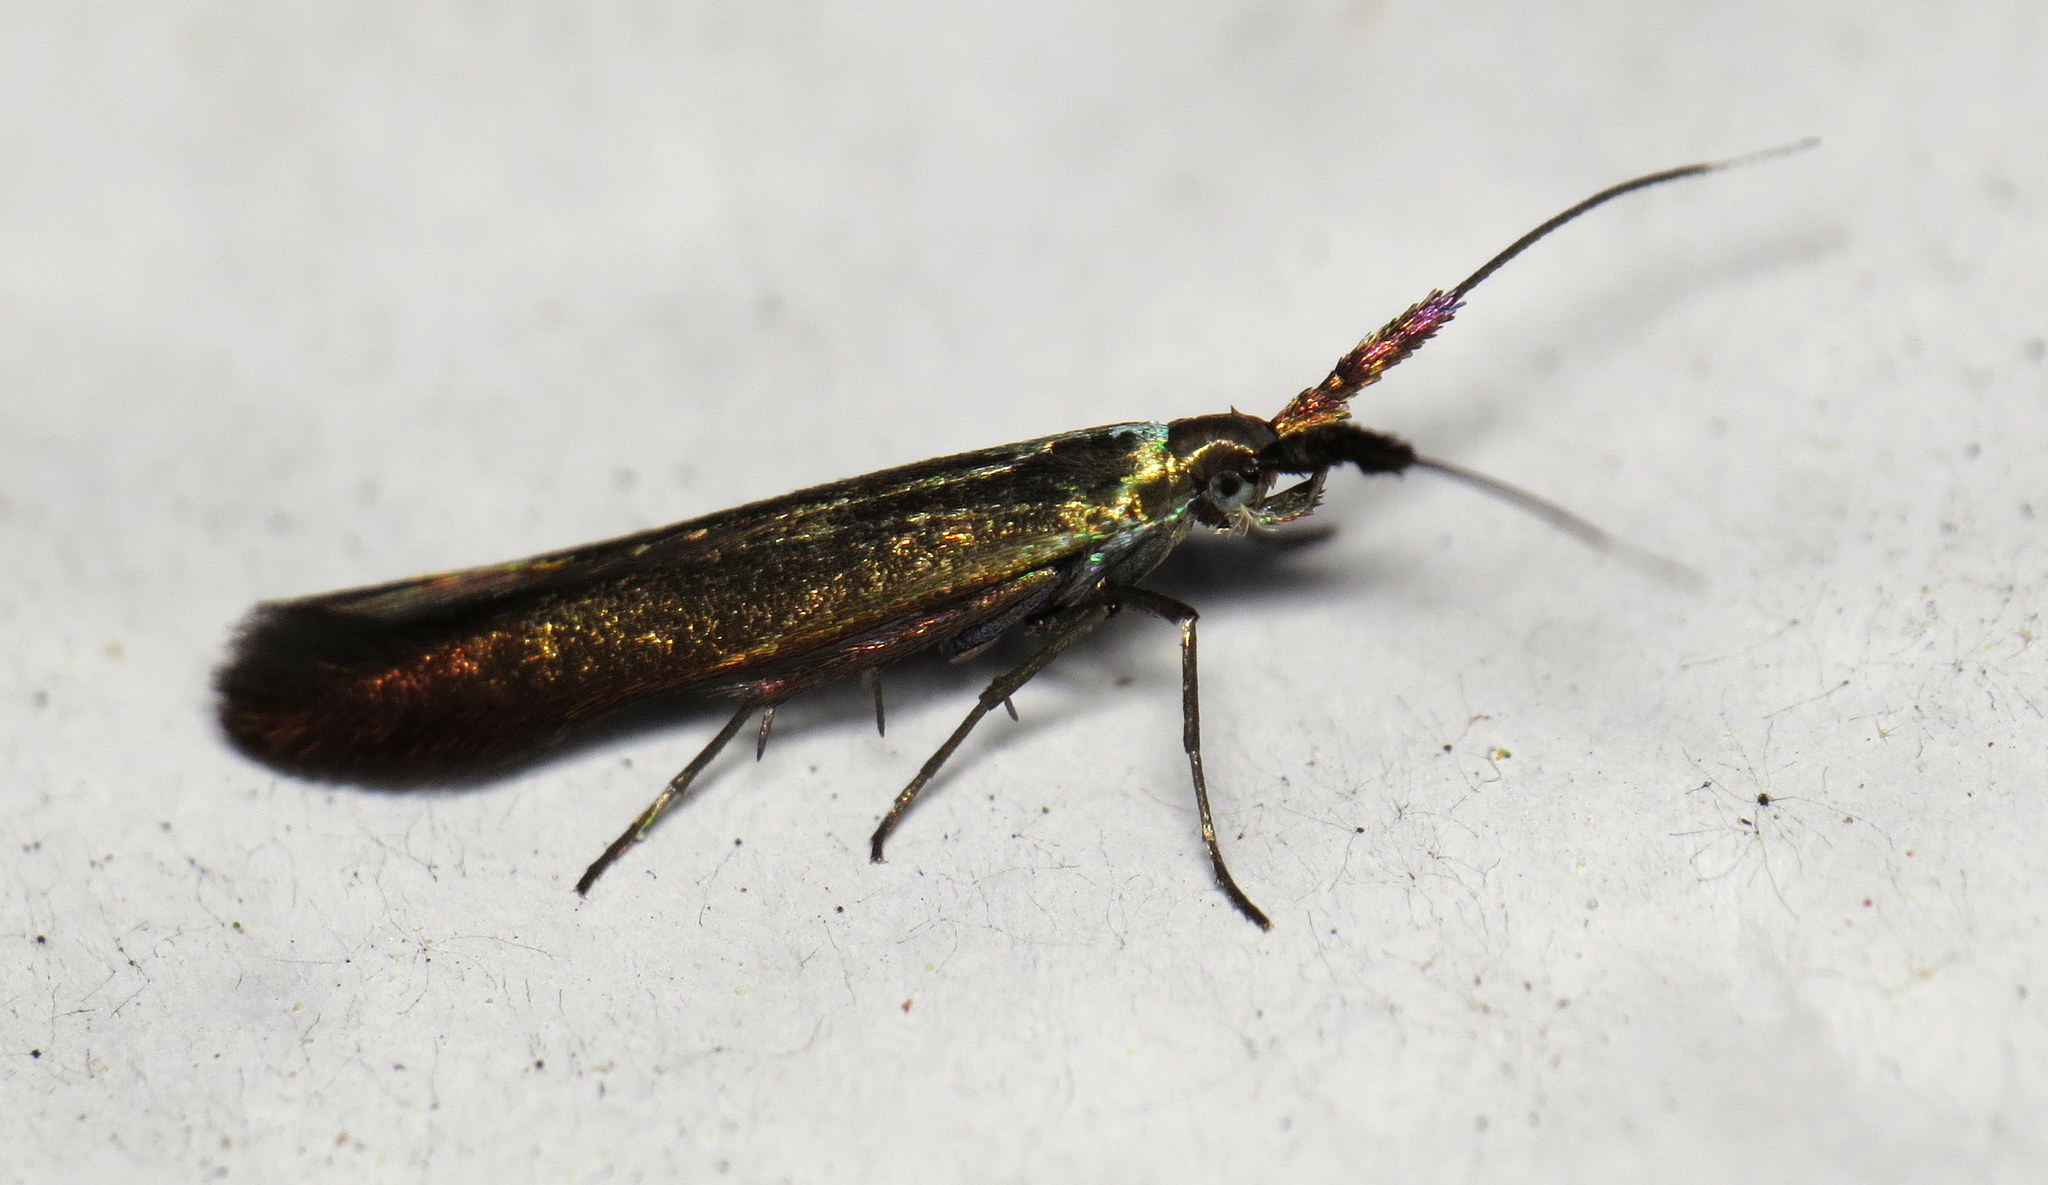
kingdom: Animalia
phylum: Arthropoda
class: Insecta
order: Lepidoptera
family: Coleophoridae
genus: Coleophora
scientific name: Coleophora deauratella
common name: Red-clover case-bearer
